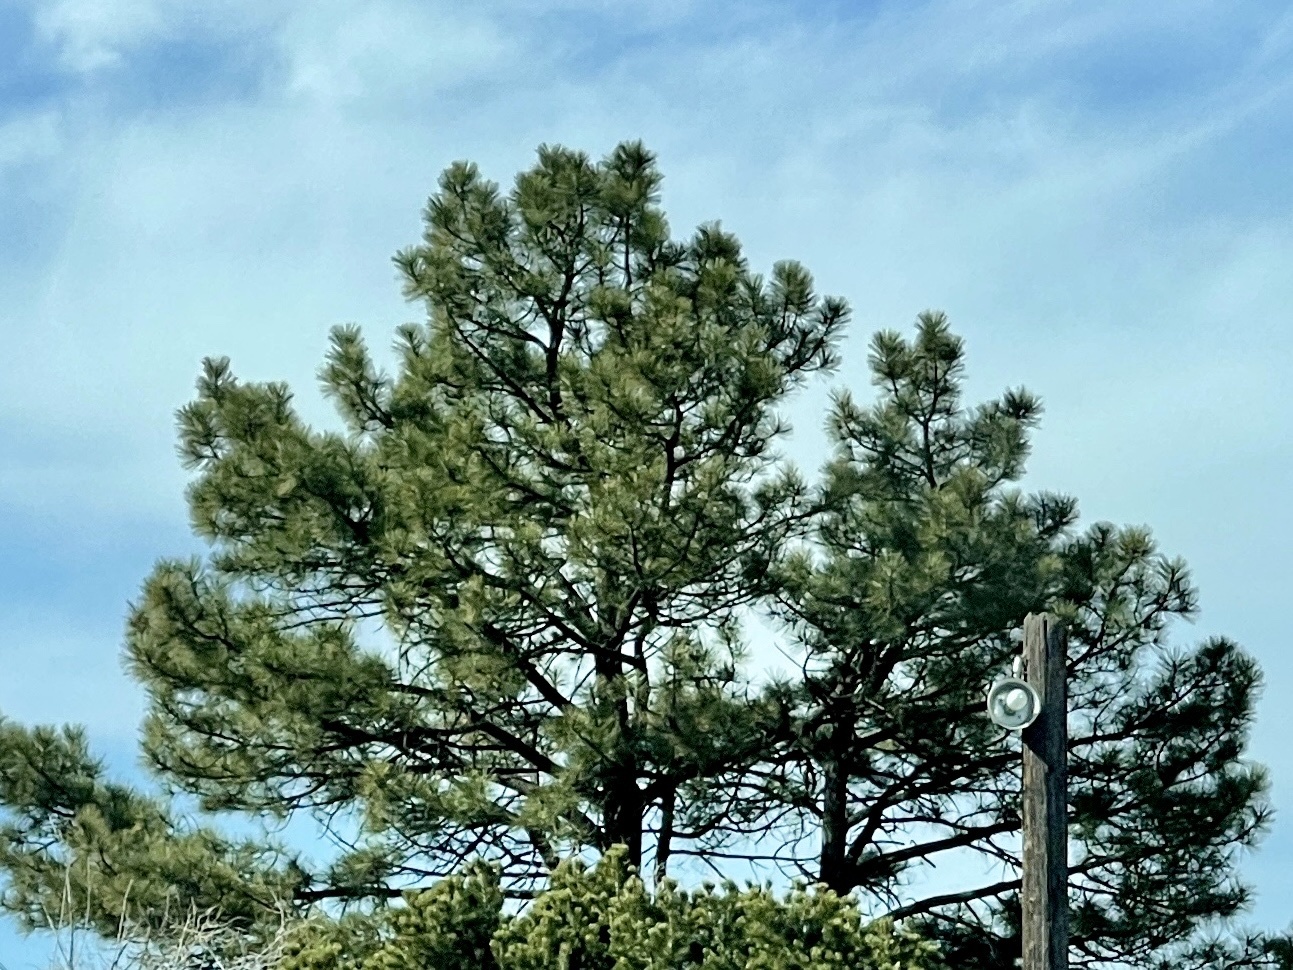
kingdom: Plantae
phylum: Tracheophyta
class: Pinopsida
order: Pinales
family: Pinaceae
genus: Pinus
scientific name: Pinus ponderosa
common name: Western yellow-pine
